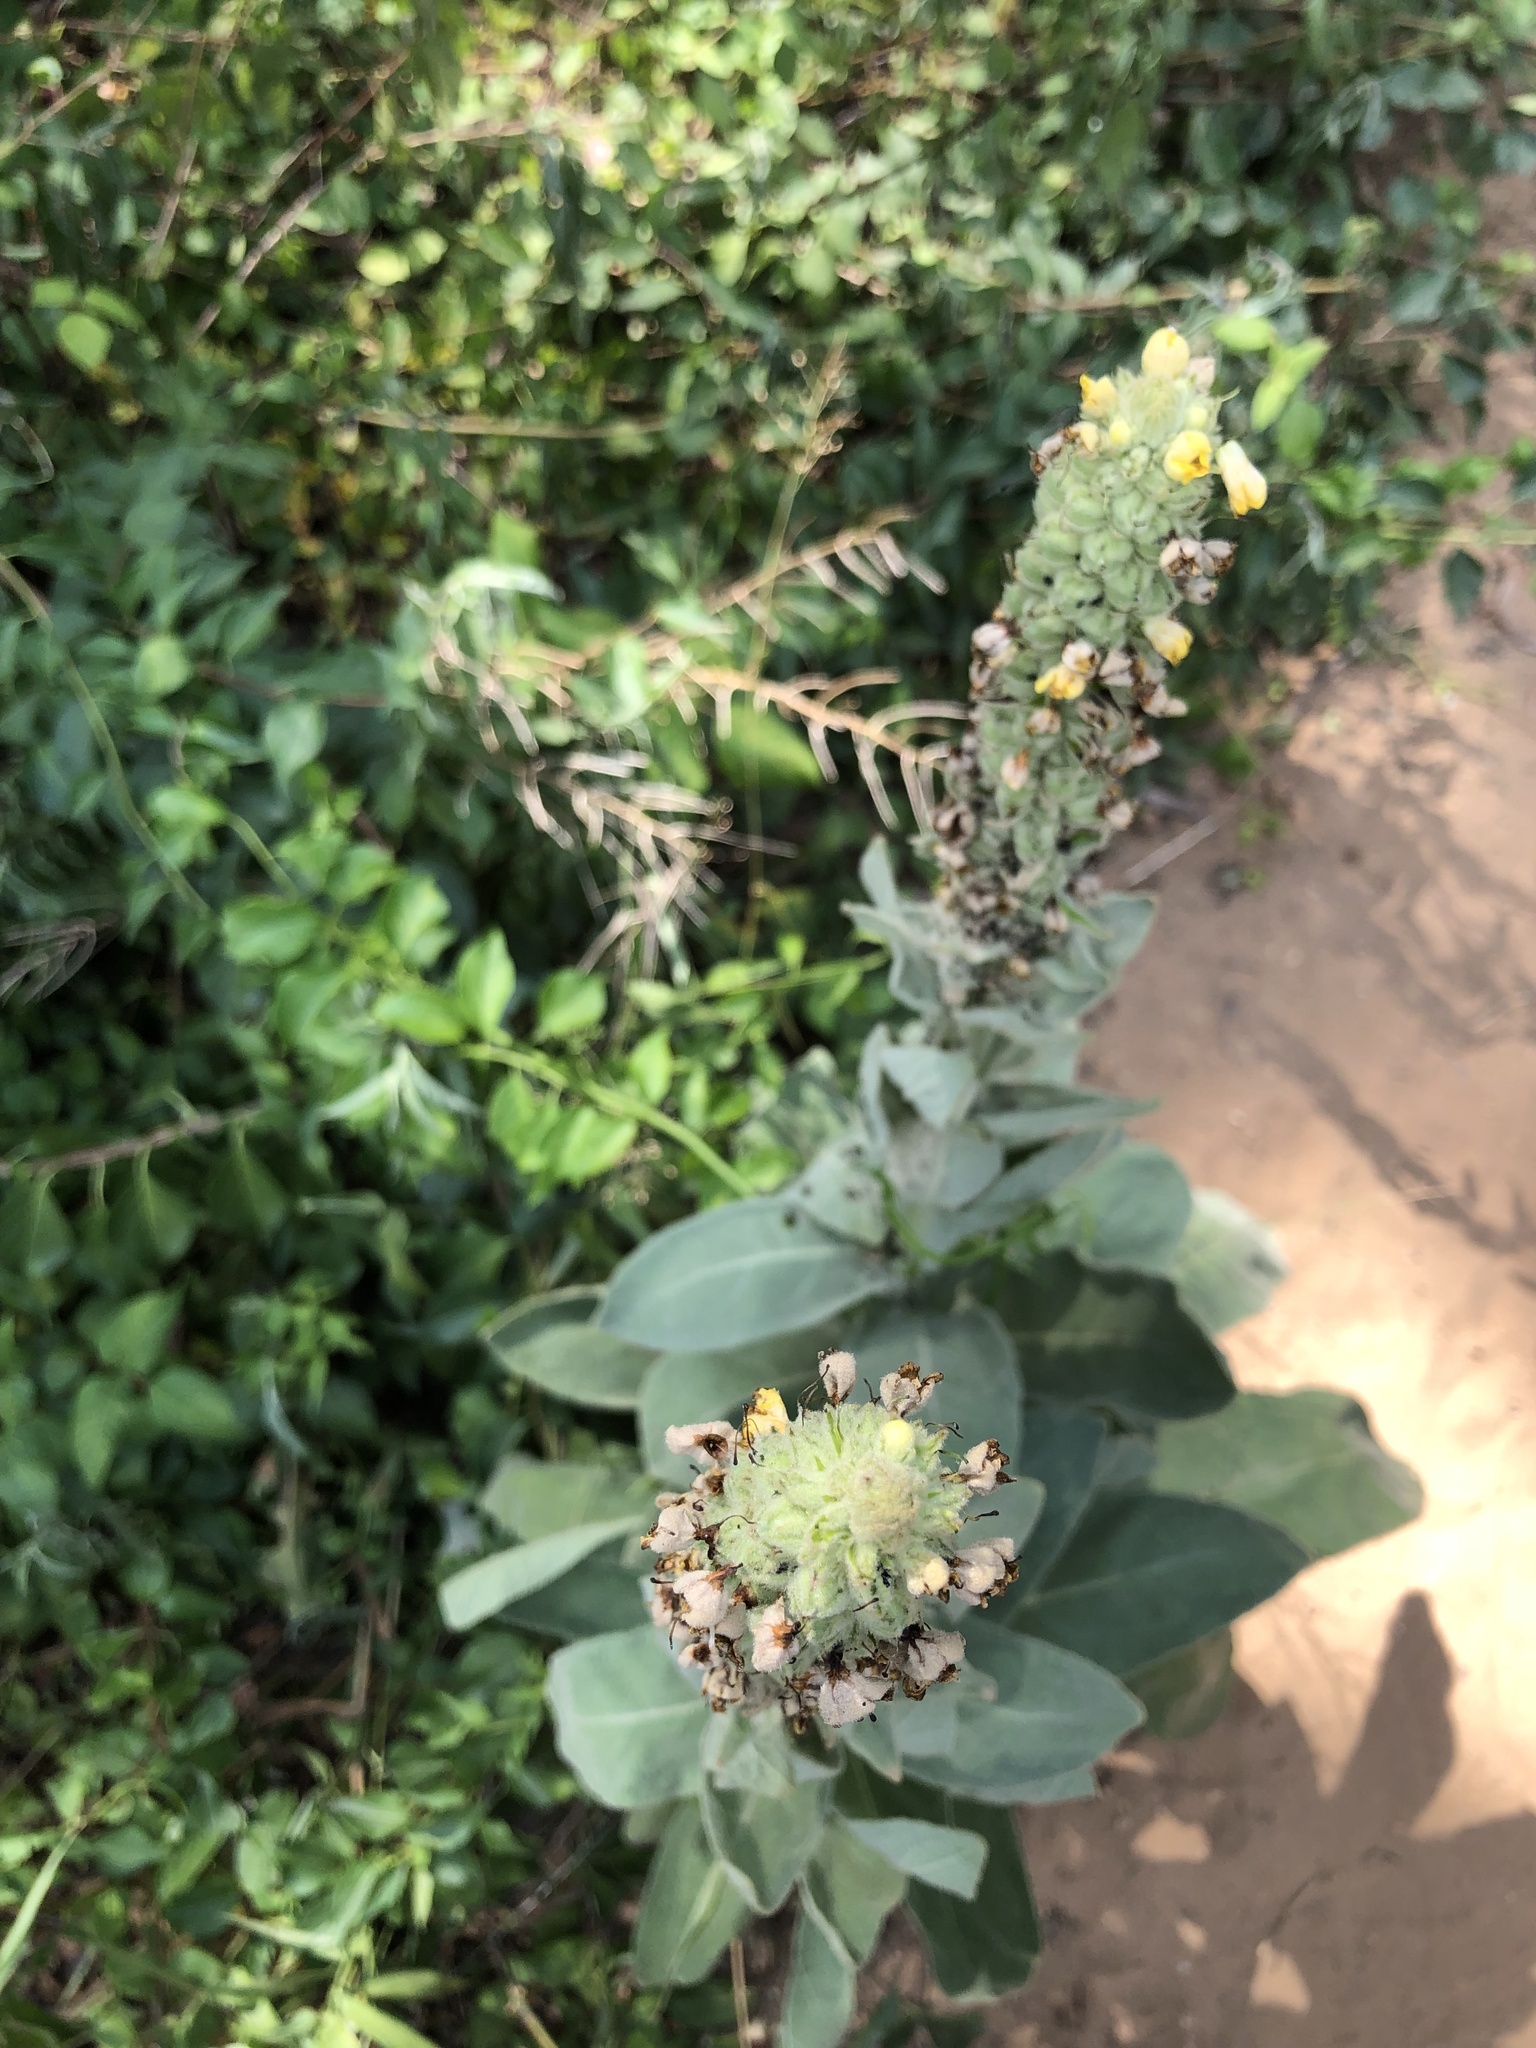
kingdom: Plantae
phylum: Tracheophyta
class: Magnoliopsida
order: Lamiales
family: Scrophulariaceae
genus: Verbascum
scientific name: Verbascum thapsus
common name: Common mullein
